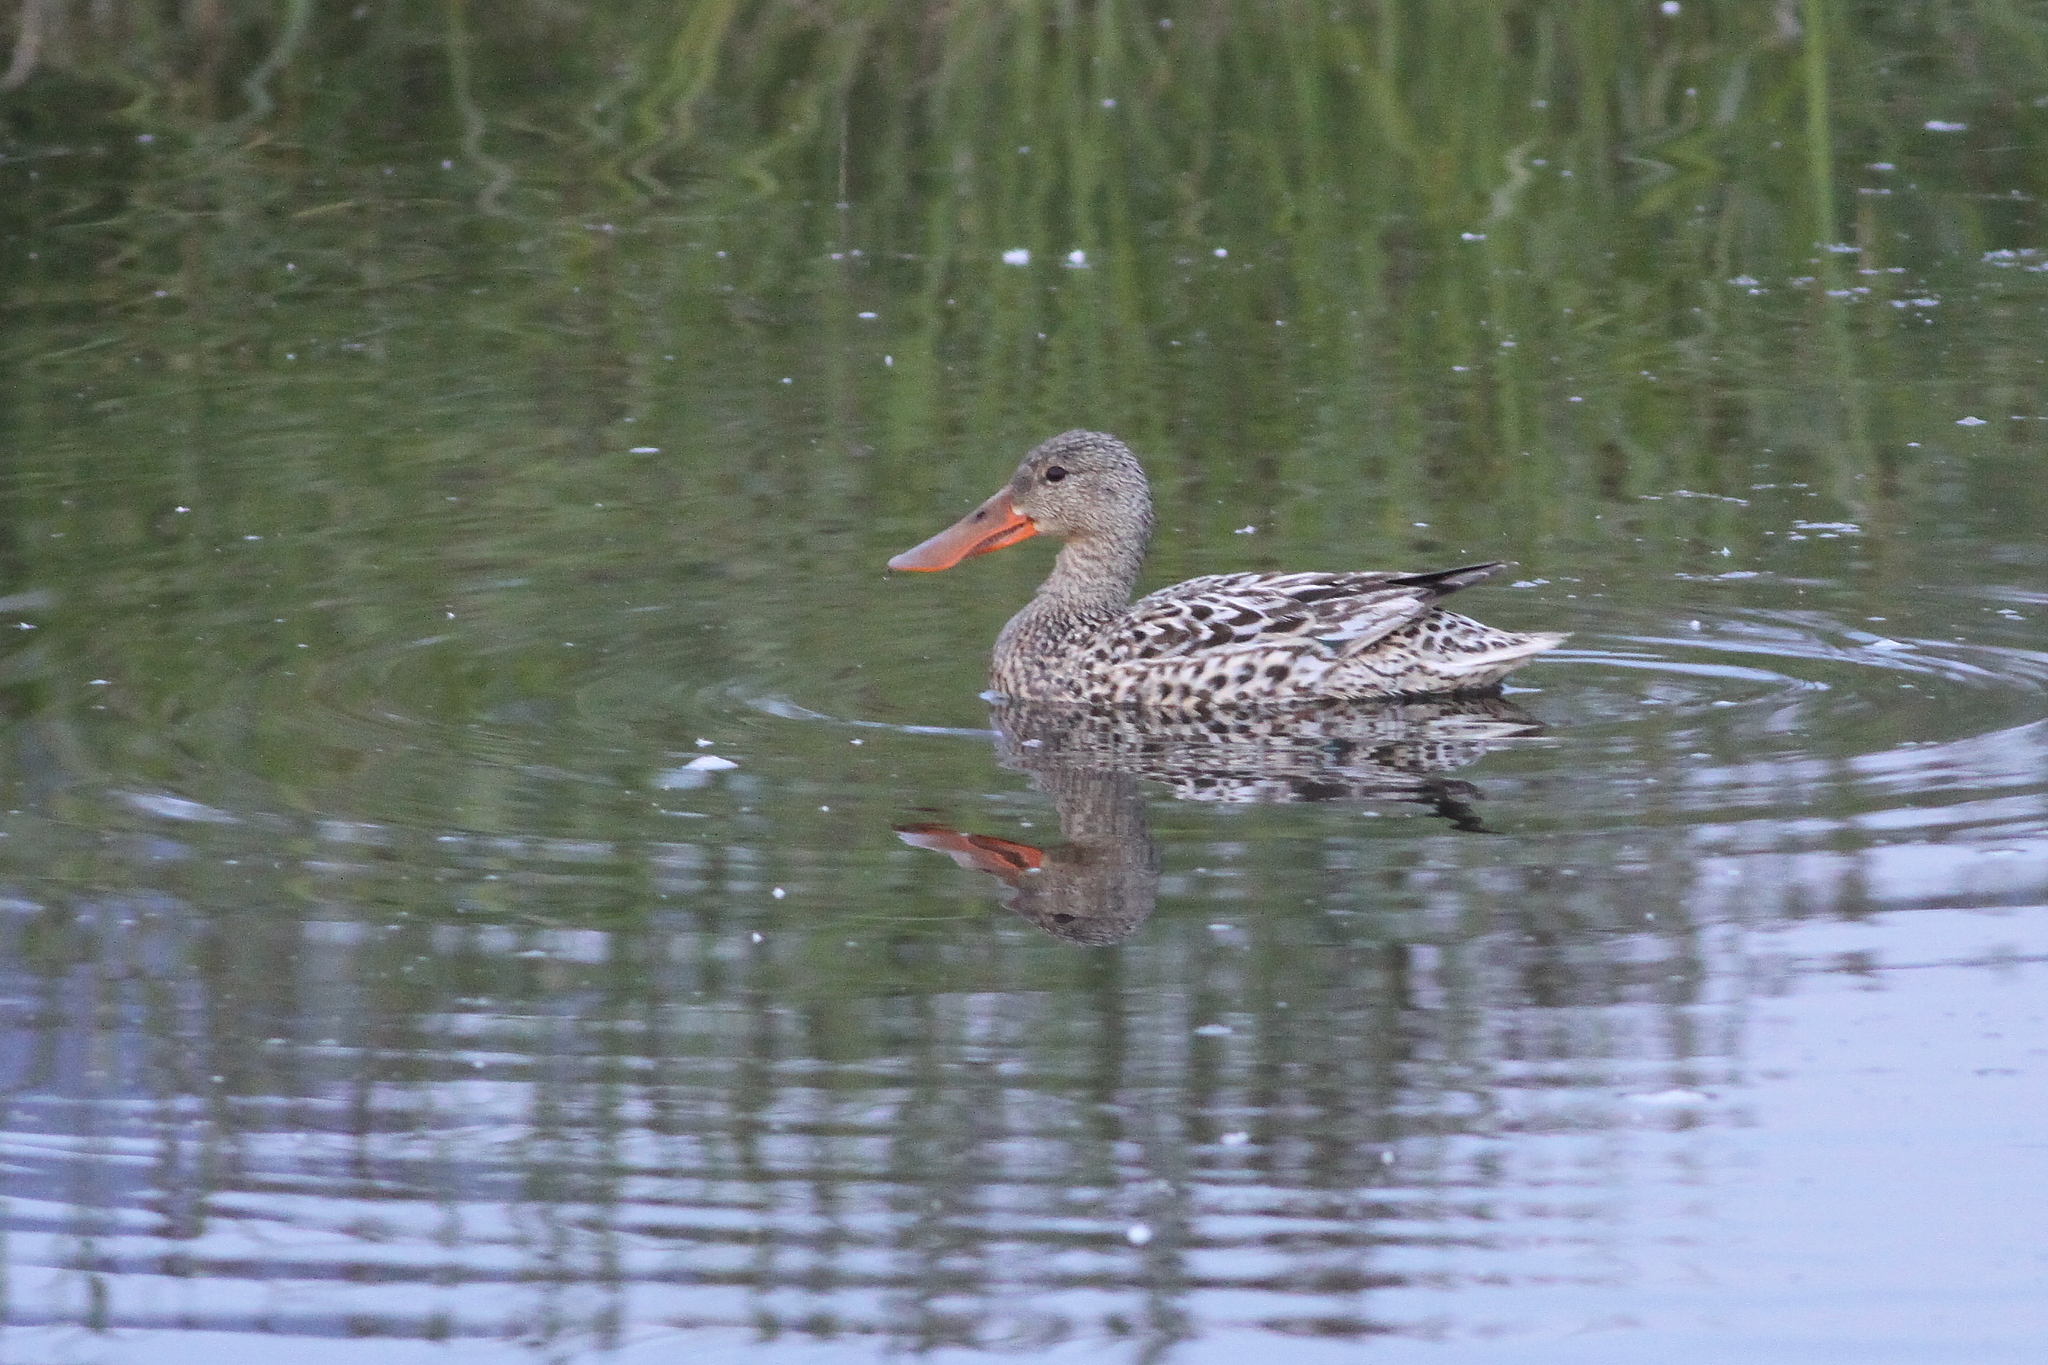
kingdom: Animalia
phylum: Chordata
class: Aves
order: Anseriformes
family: Anatidae
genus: Spatula
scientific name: Spatula clypeata
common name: Northern shoveler
